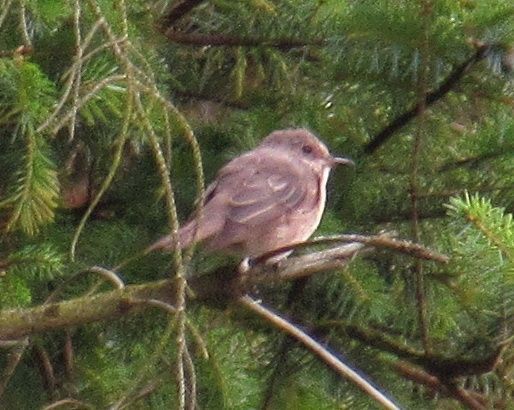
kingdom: Animalia
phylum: Chordata
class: Aves
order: Passeriformes
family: Muscicapidae
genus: Muscicapa
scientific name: Muscicapa striata
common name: Spotted flycatcher
